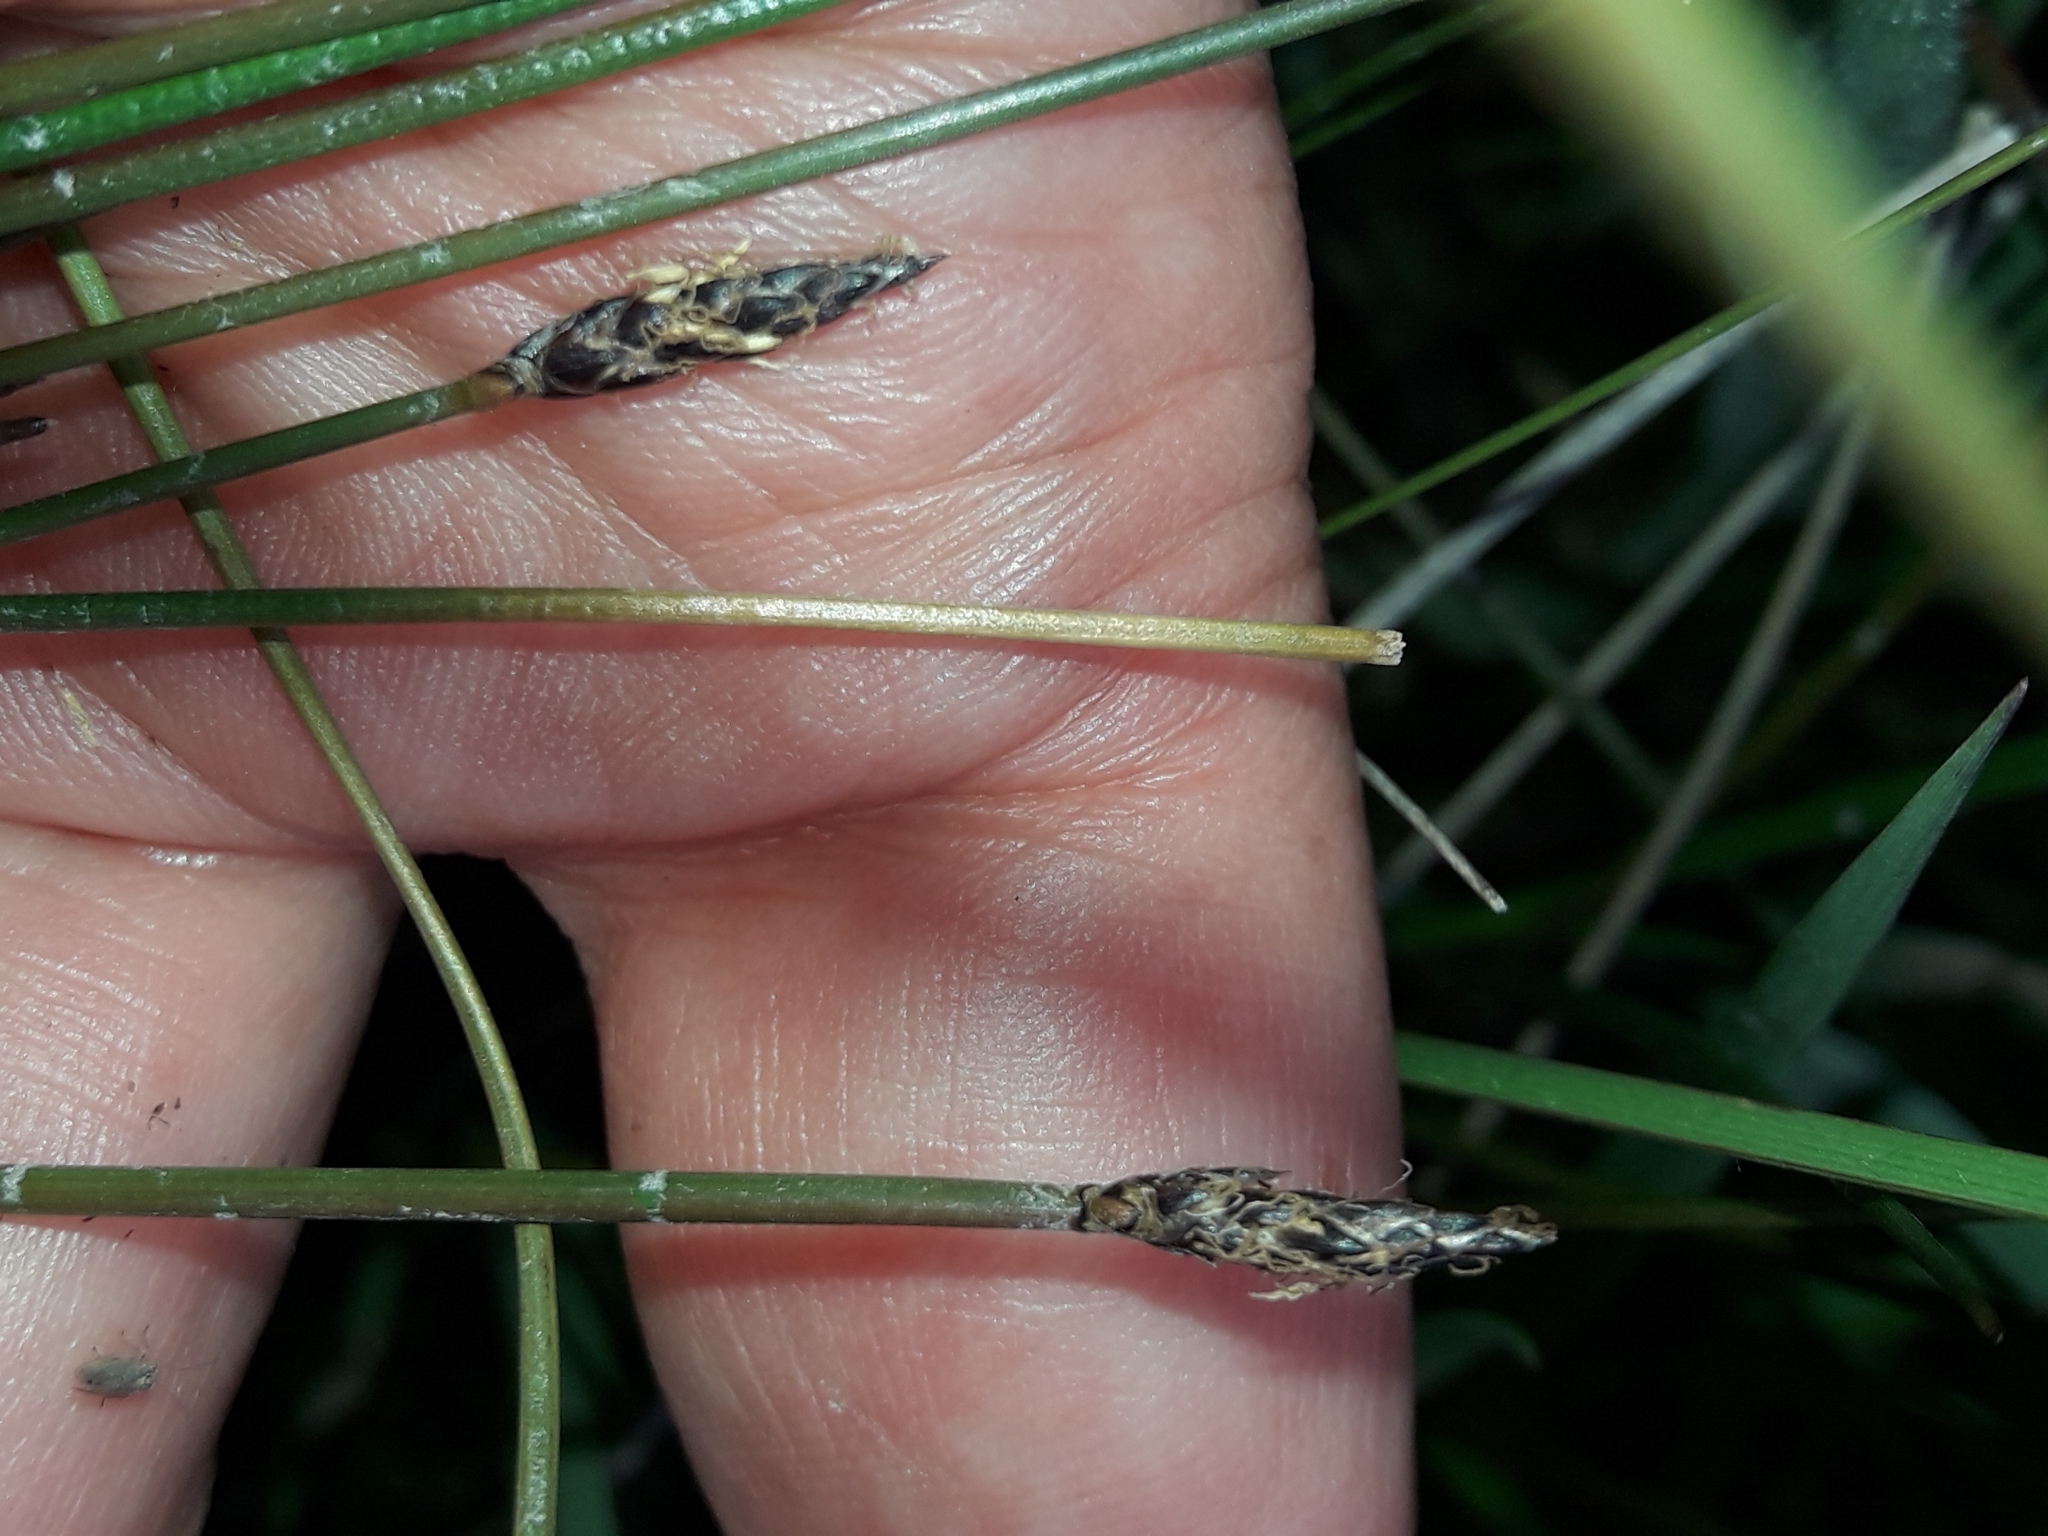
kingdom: Plantae
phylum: Tracheophyta
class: Liliopsida
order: Poales
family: Cyperaceae
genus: Eleocharis
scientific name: Eleocharis acuta
